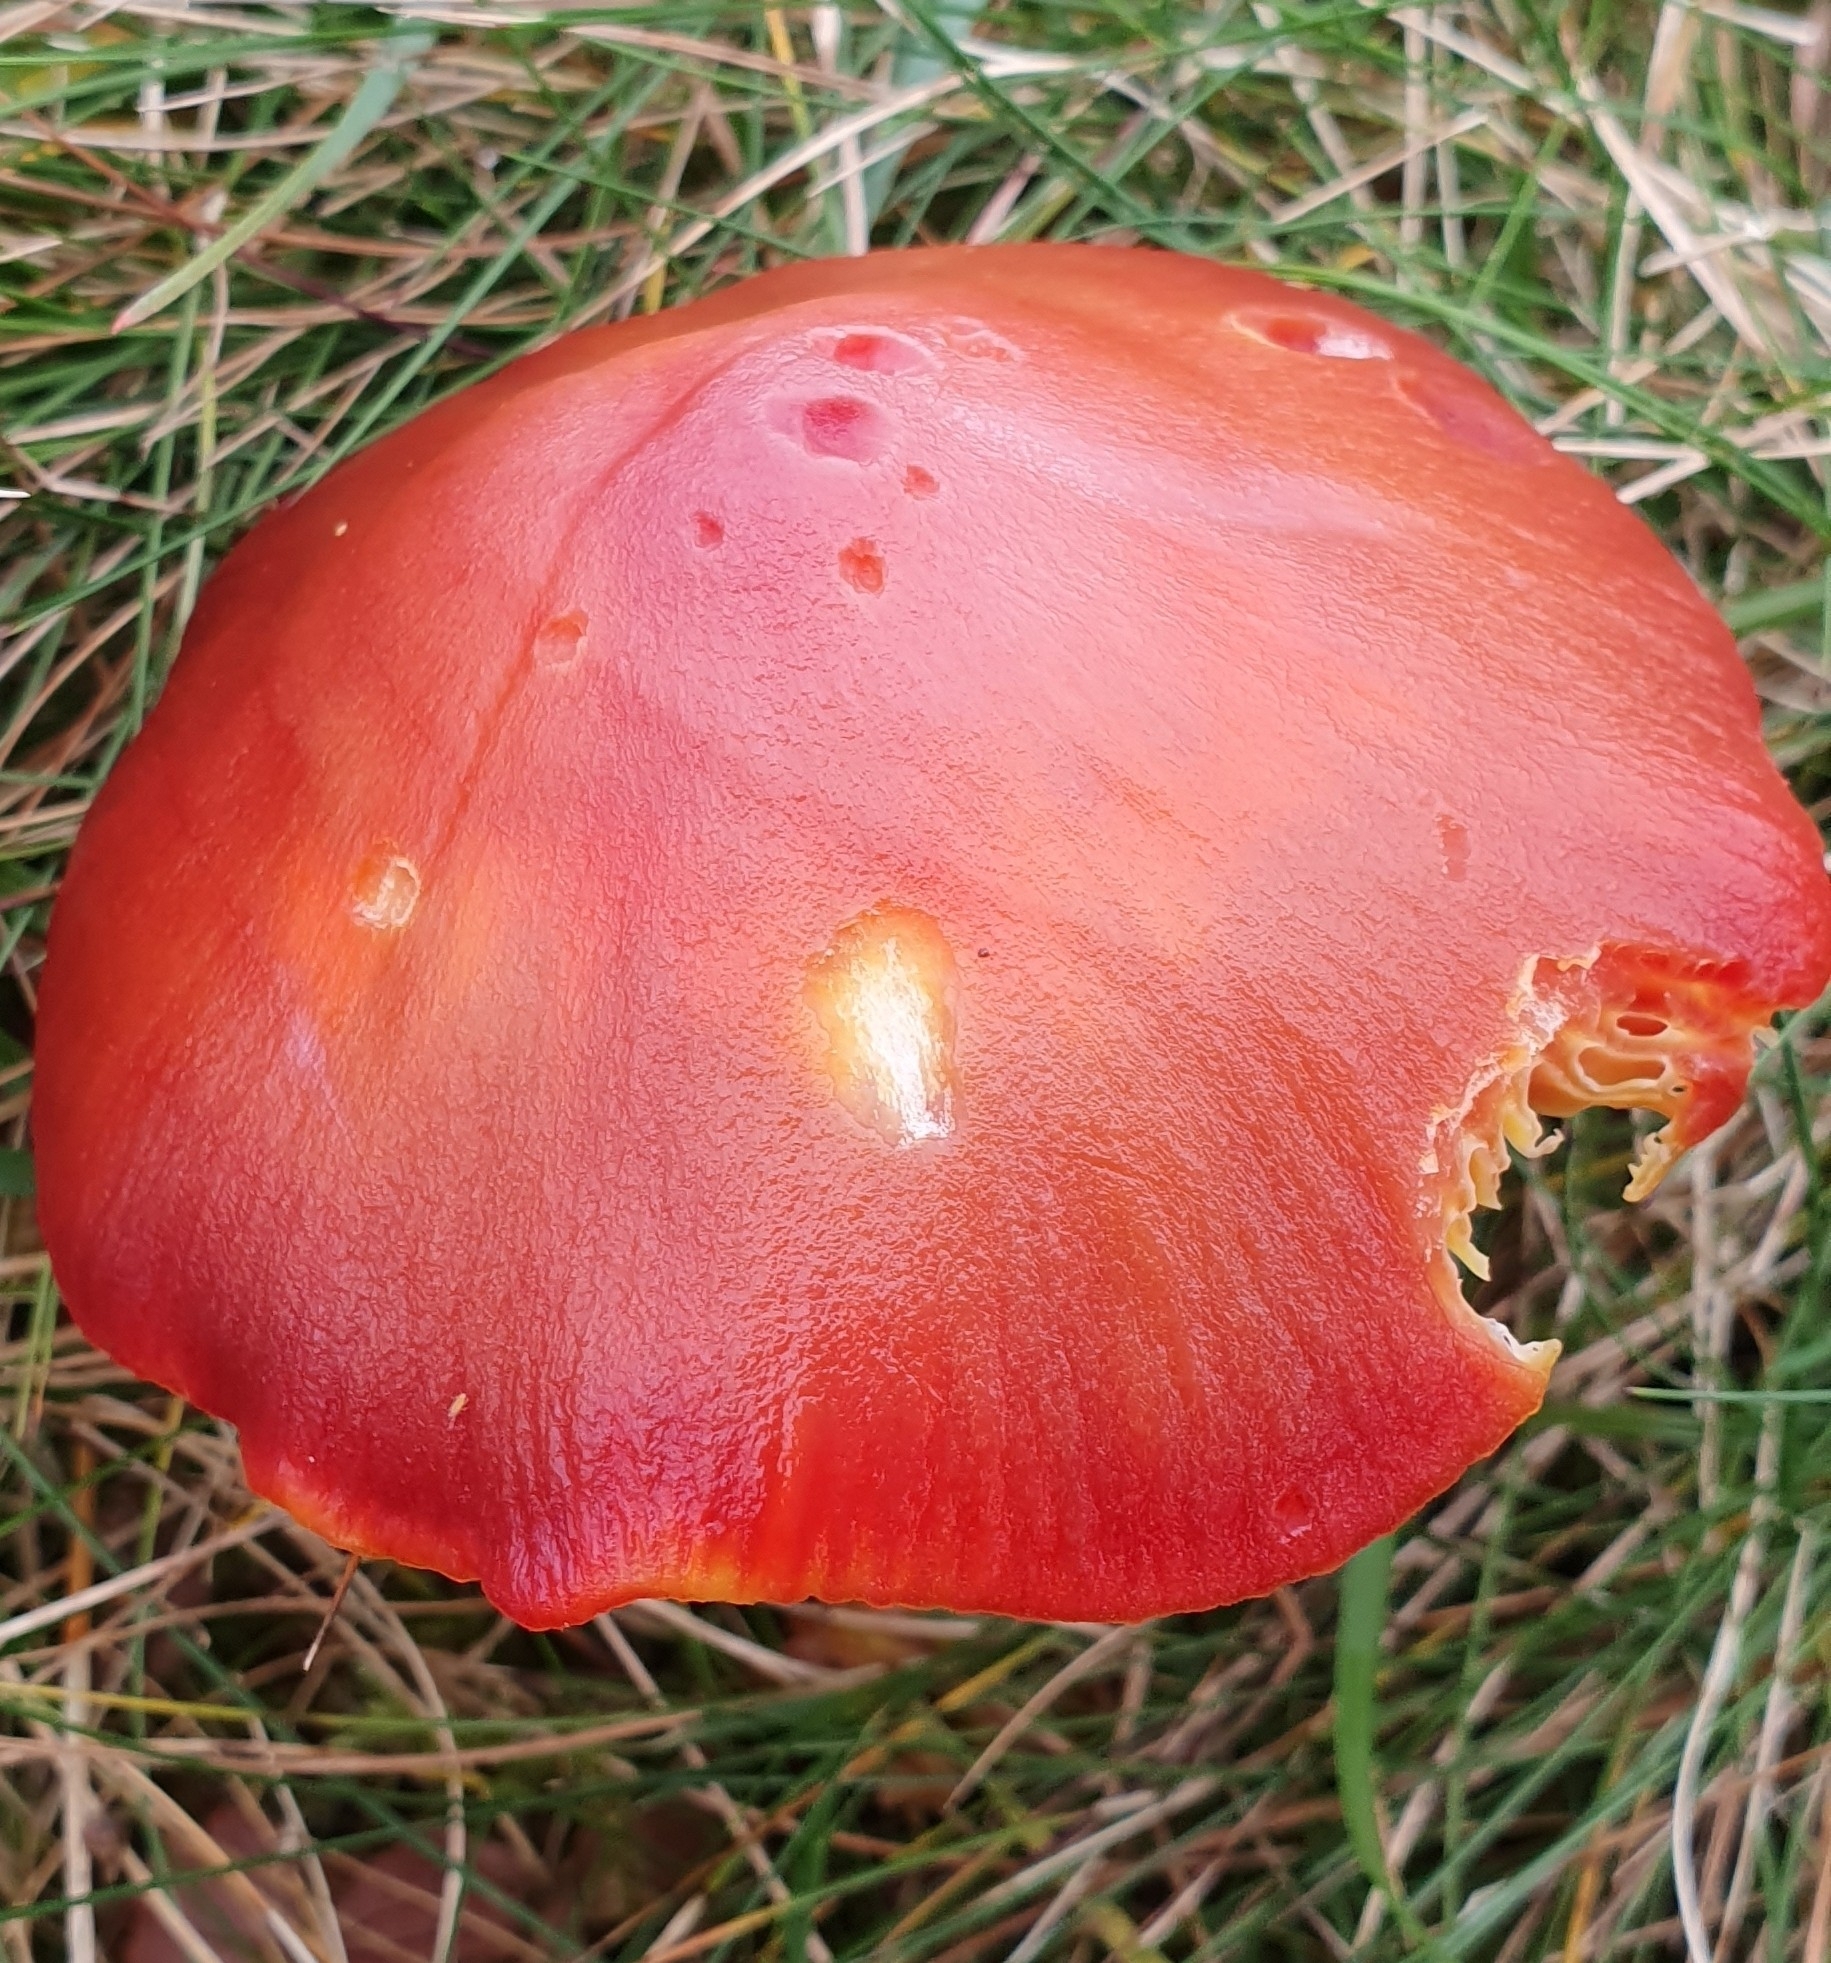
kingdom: Fungi
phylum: Basidiomycota
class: Agaricomycetes
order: Agaricales
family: Hygrophoraceae
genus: Hygrocybe
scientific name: Hygrocybe punicea
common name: Crimson waxcap
